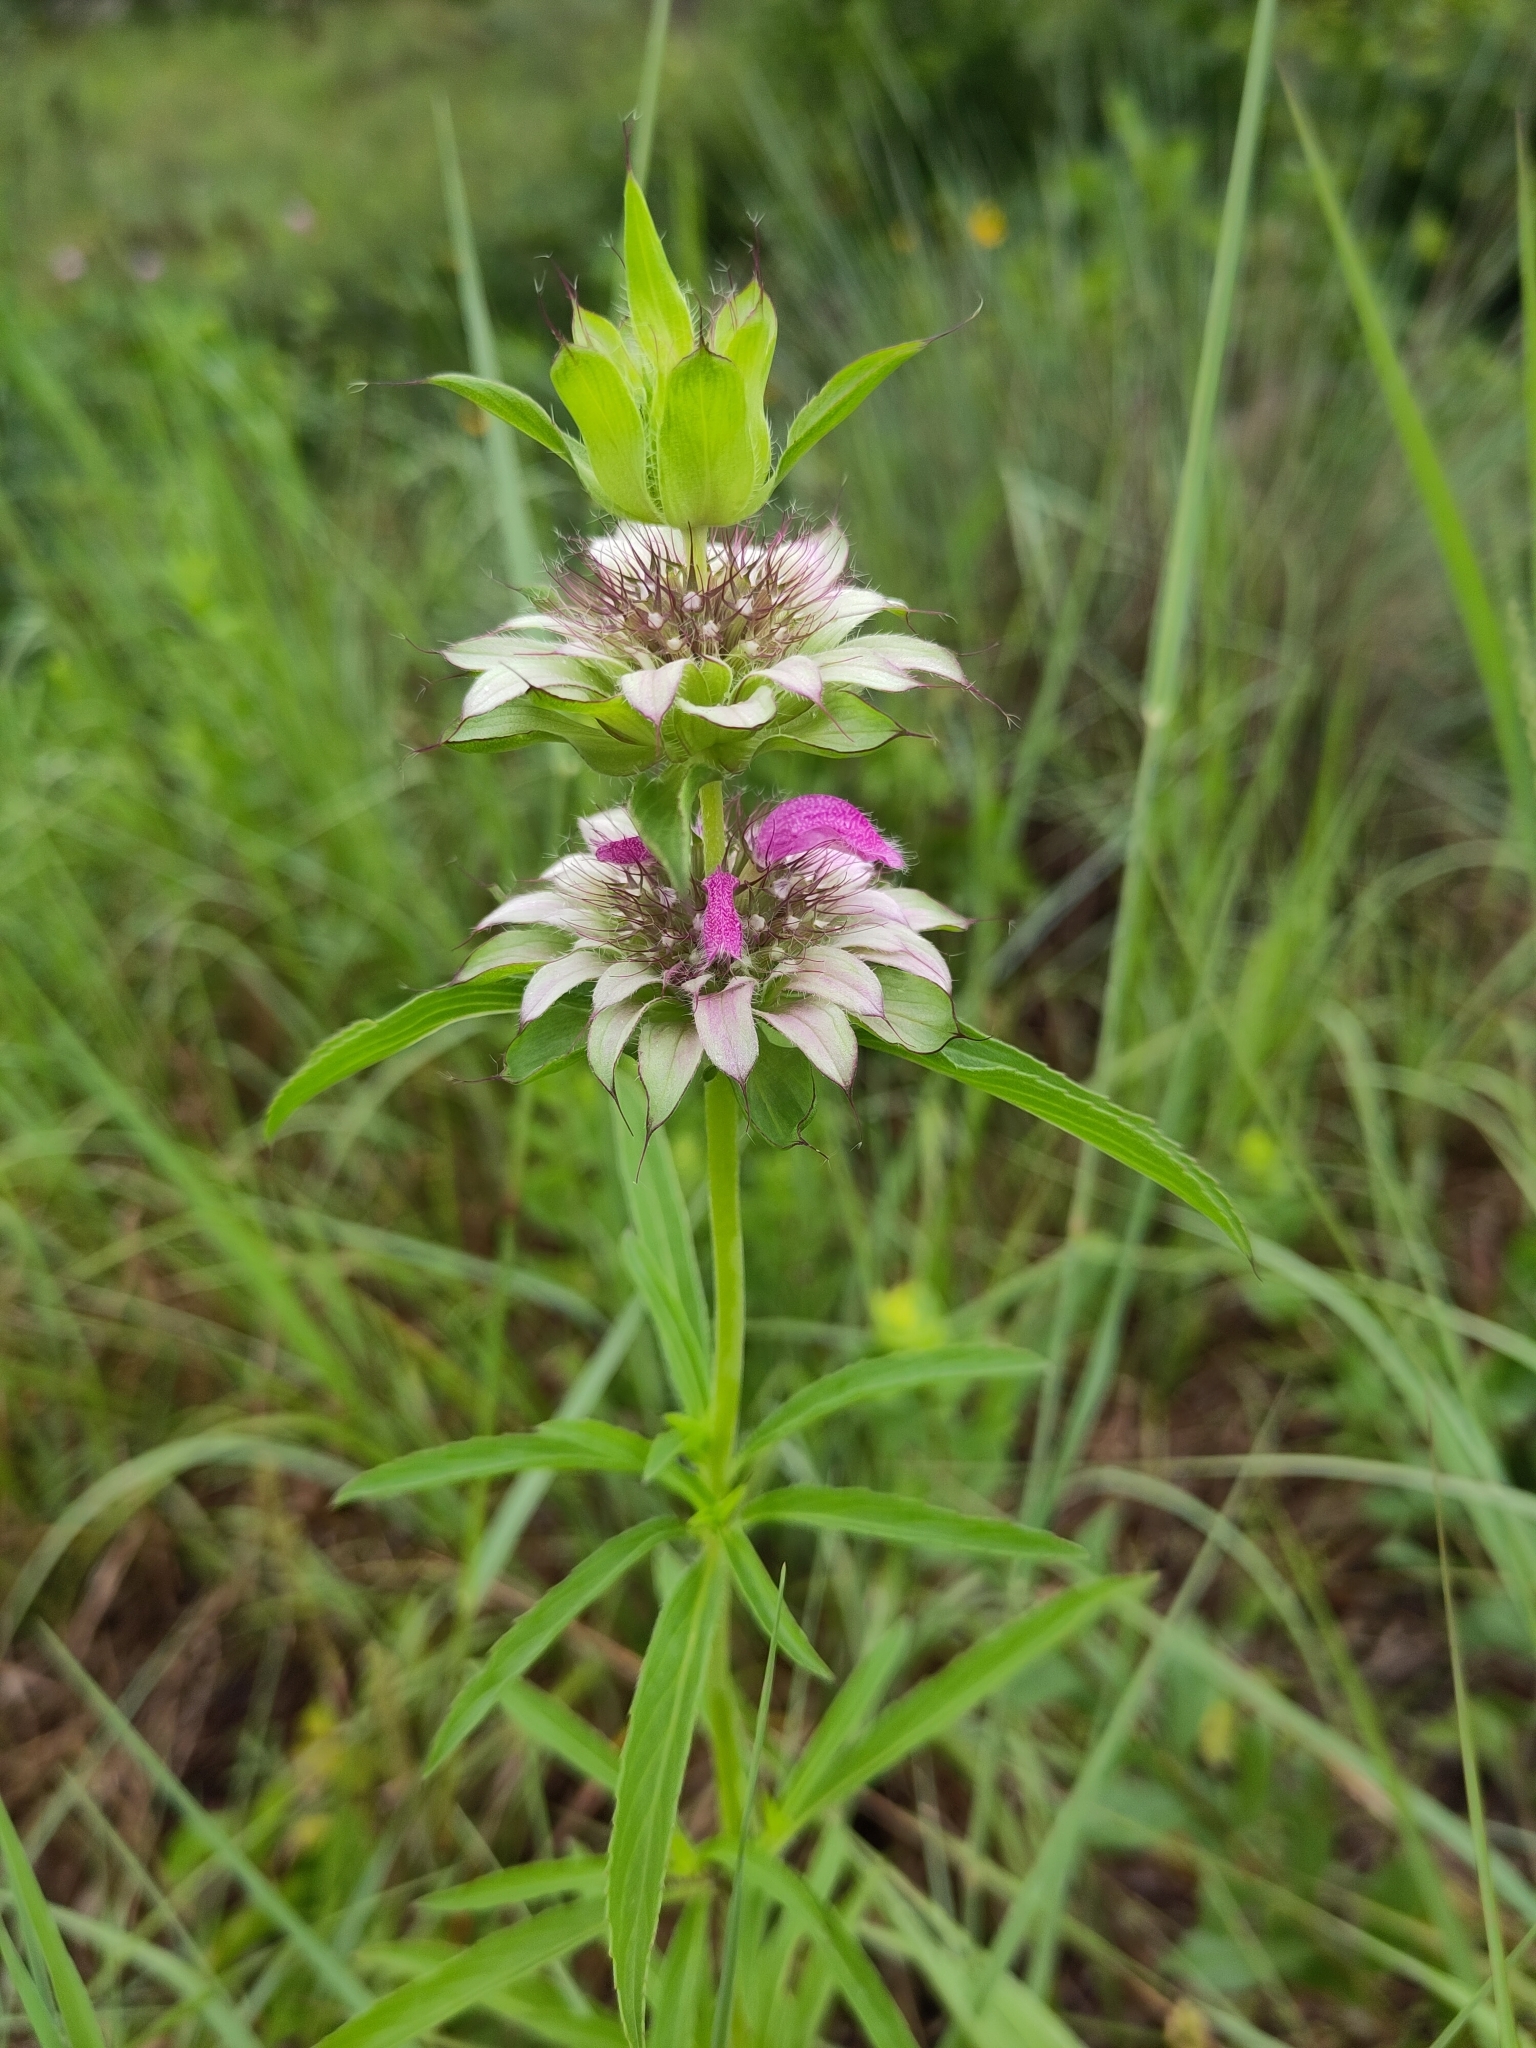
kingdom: Plantae
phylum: Tracheophyta
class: Magnoliopsida
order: Lamiales
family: Lamiaceae
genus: Monarda
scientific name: Monarda citriodora
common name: Lemon beebalm
